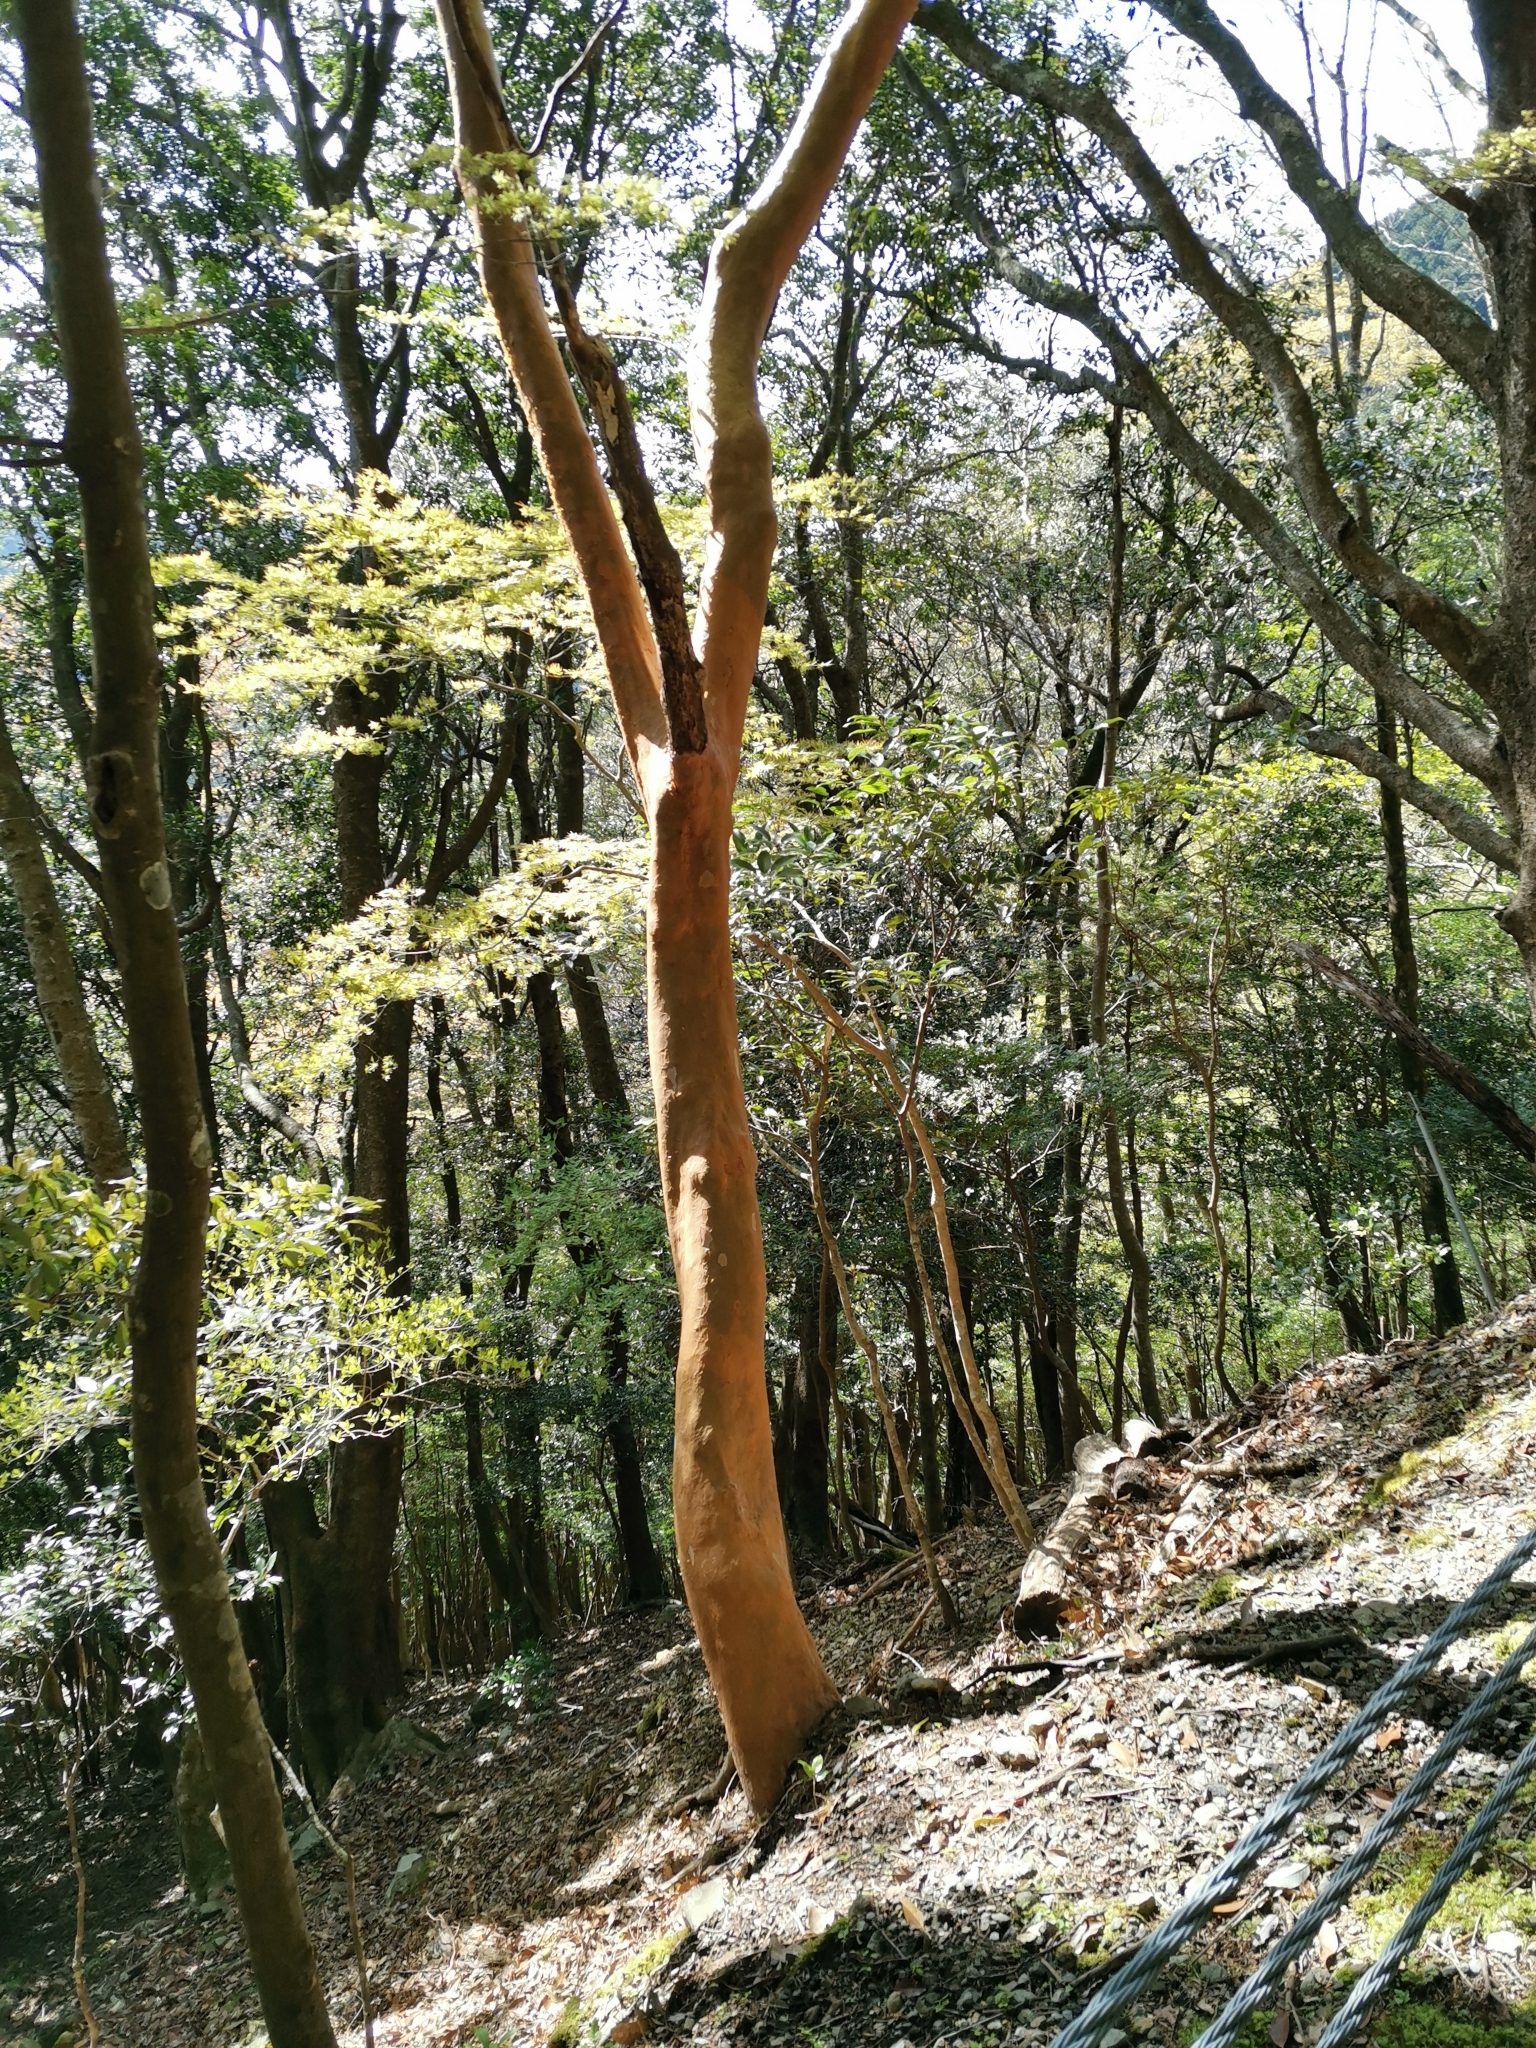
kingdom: Plantae
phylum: Tracheophyta
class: Magnoliopsida
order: Ericales
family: Theaceae
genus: Stewartia
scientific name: Stewartia monadelpha
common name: Tall stewartia
